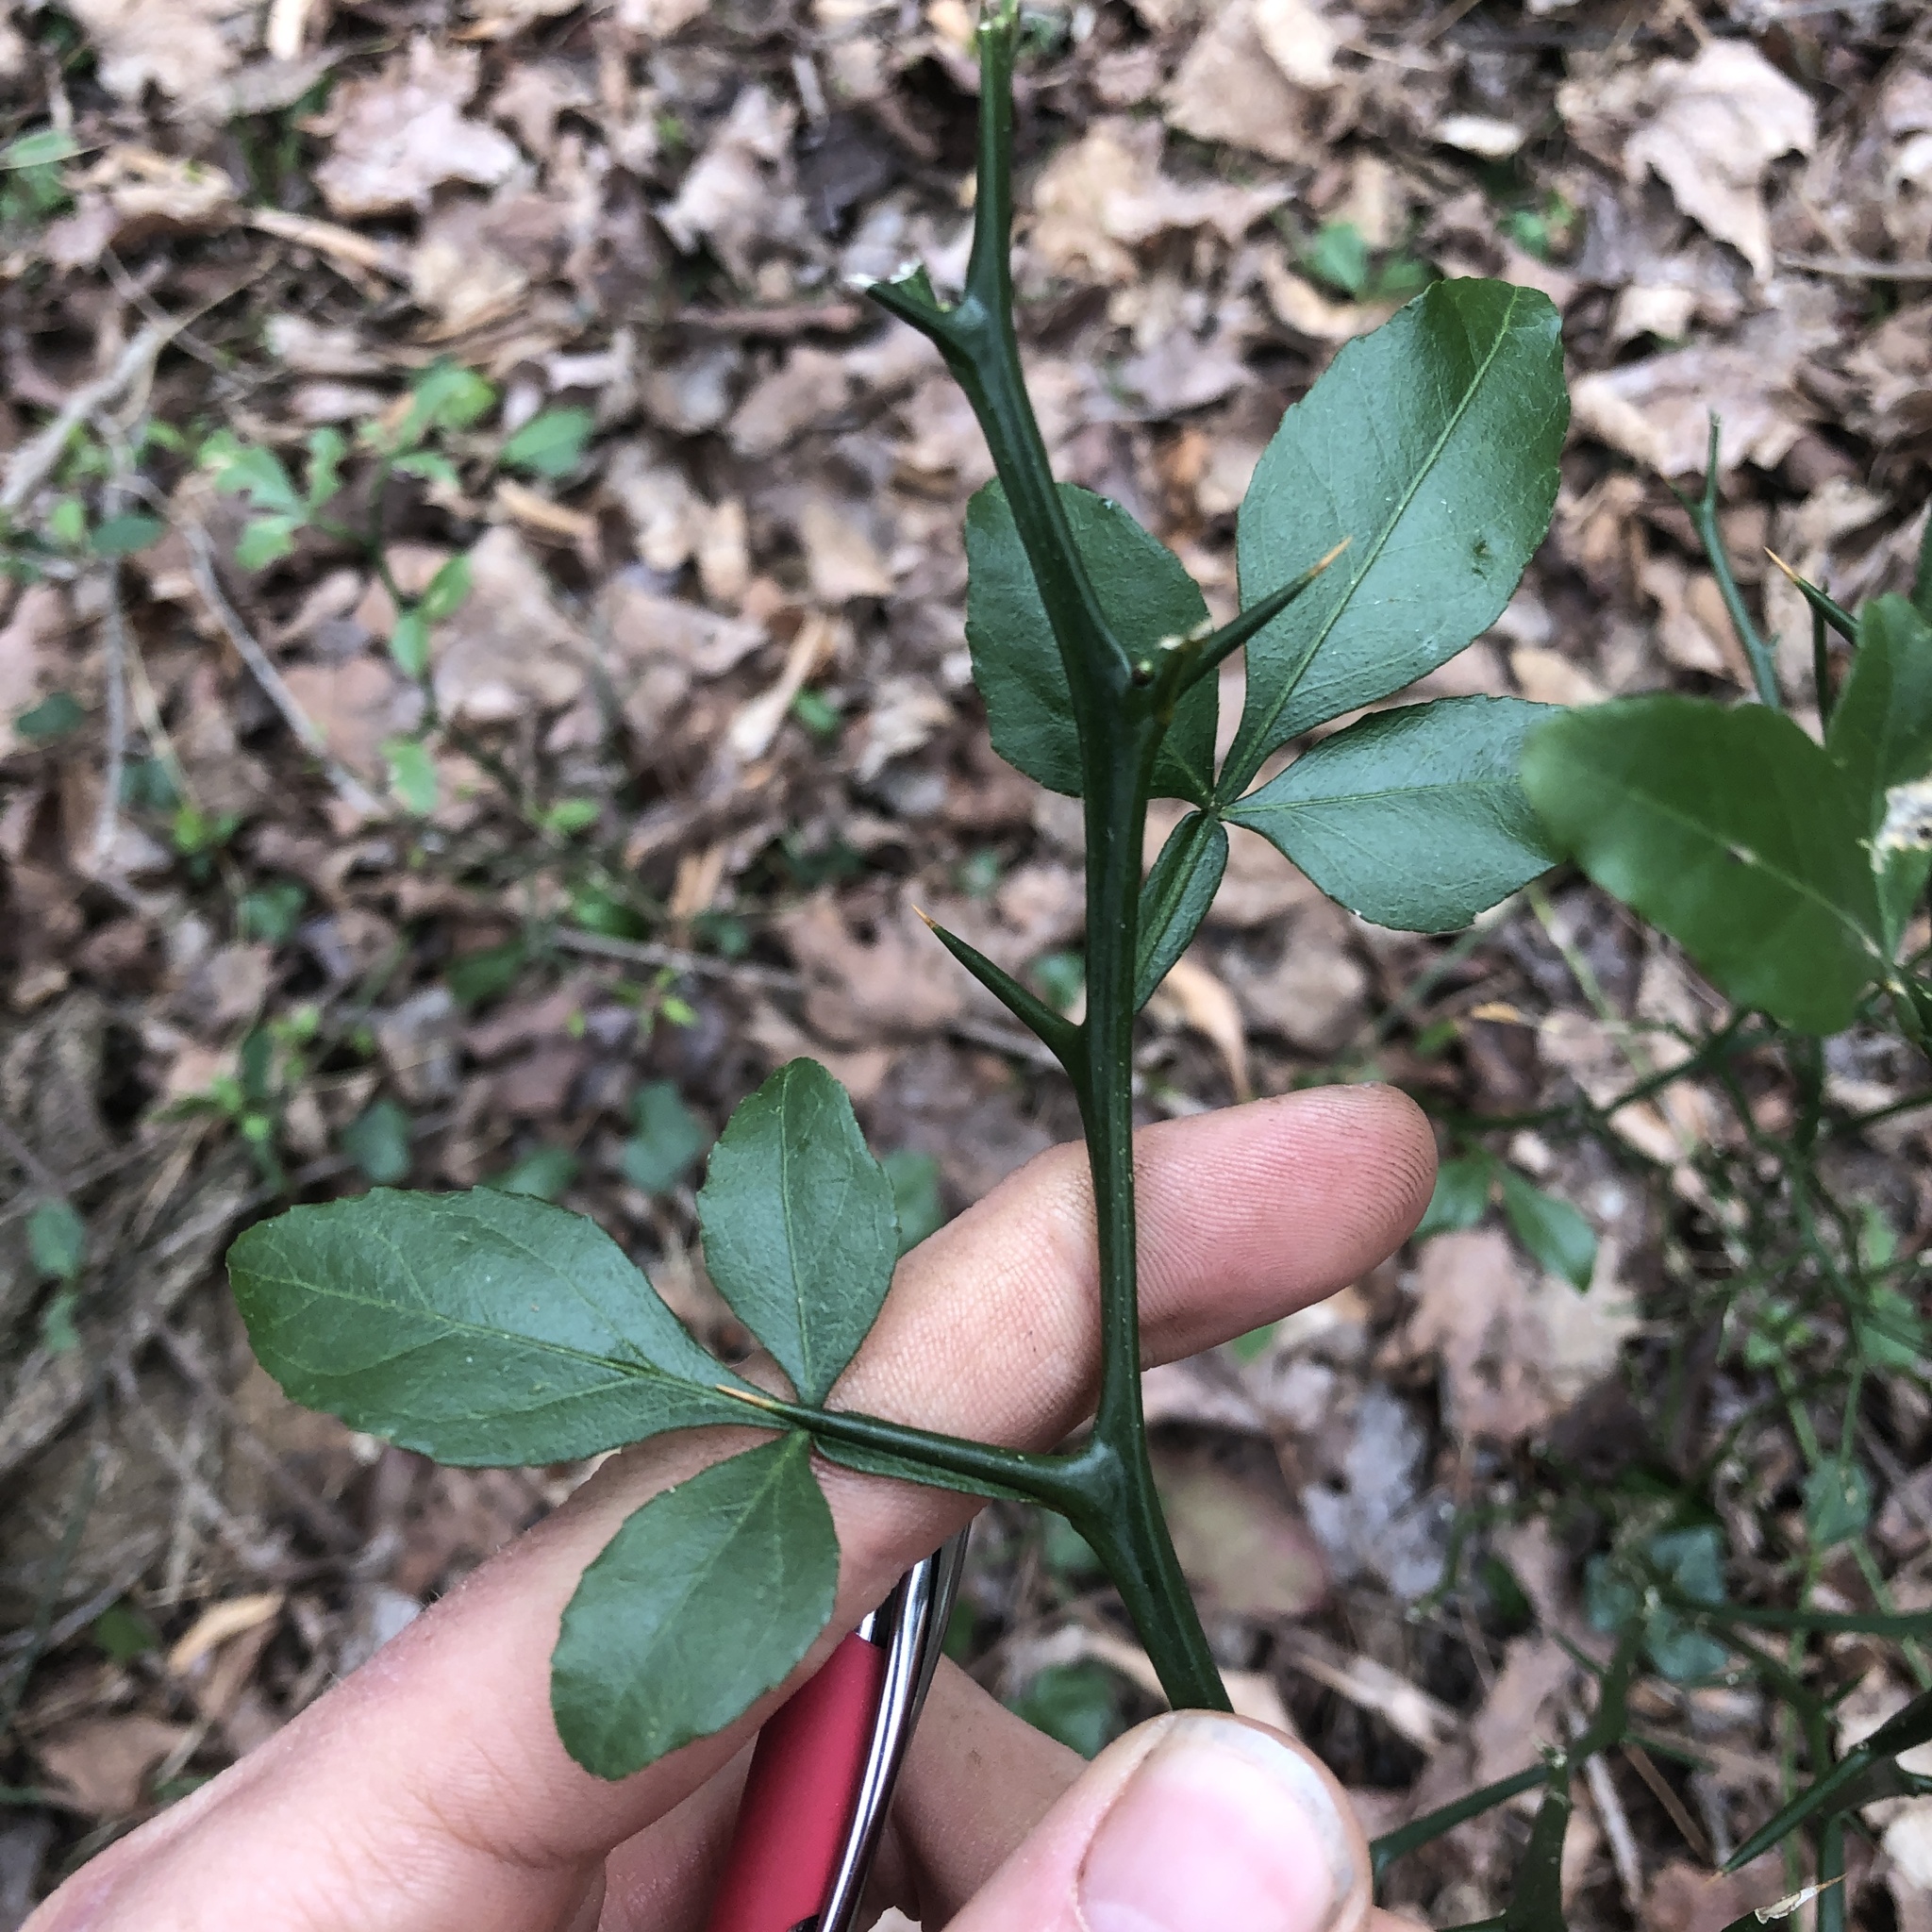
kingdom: Plantae
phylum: Tracheophyta
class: Magnoliopsida
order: Sapindales
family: Rutaceae
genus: Citrus
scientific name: Citrus trifoliata
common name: Japanese bitter-orange
